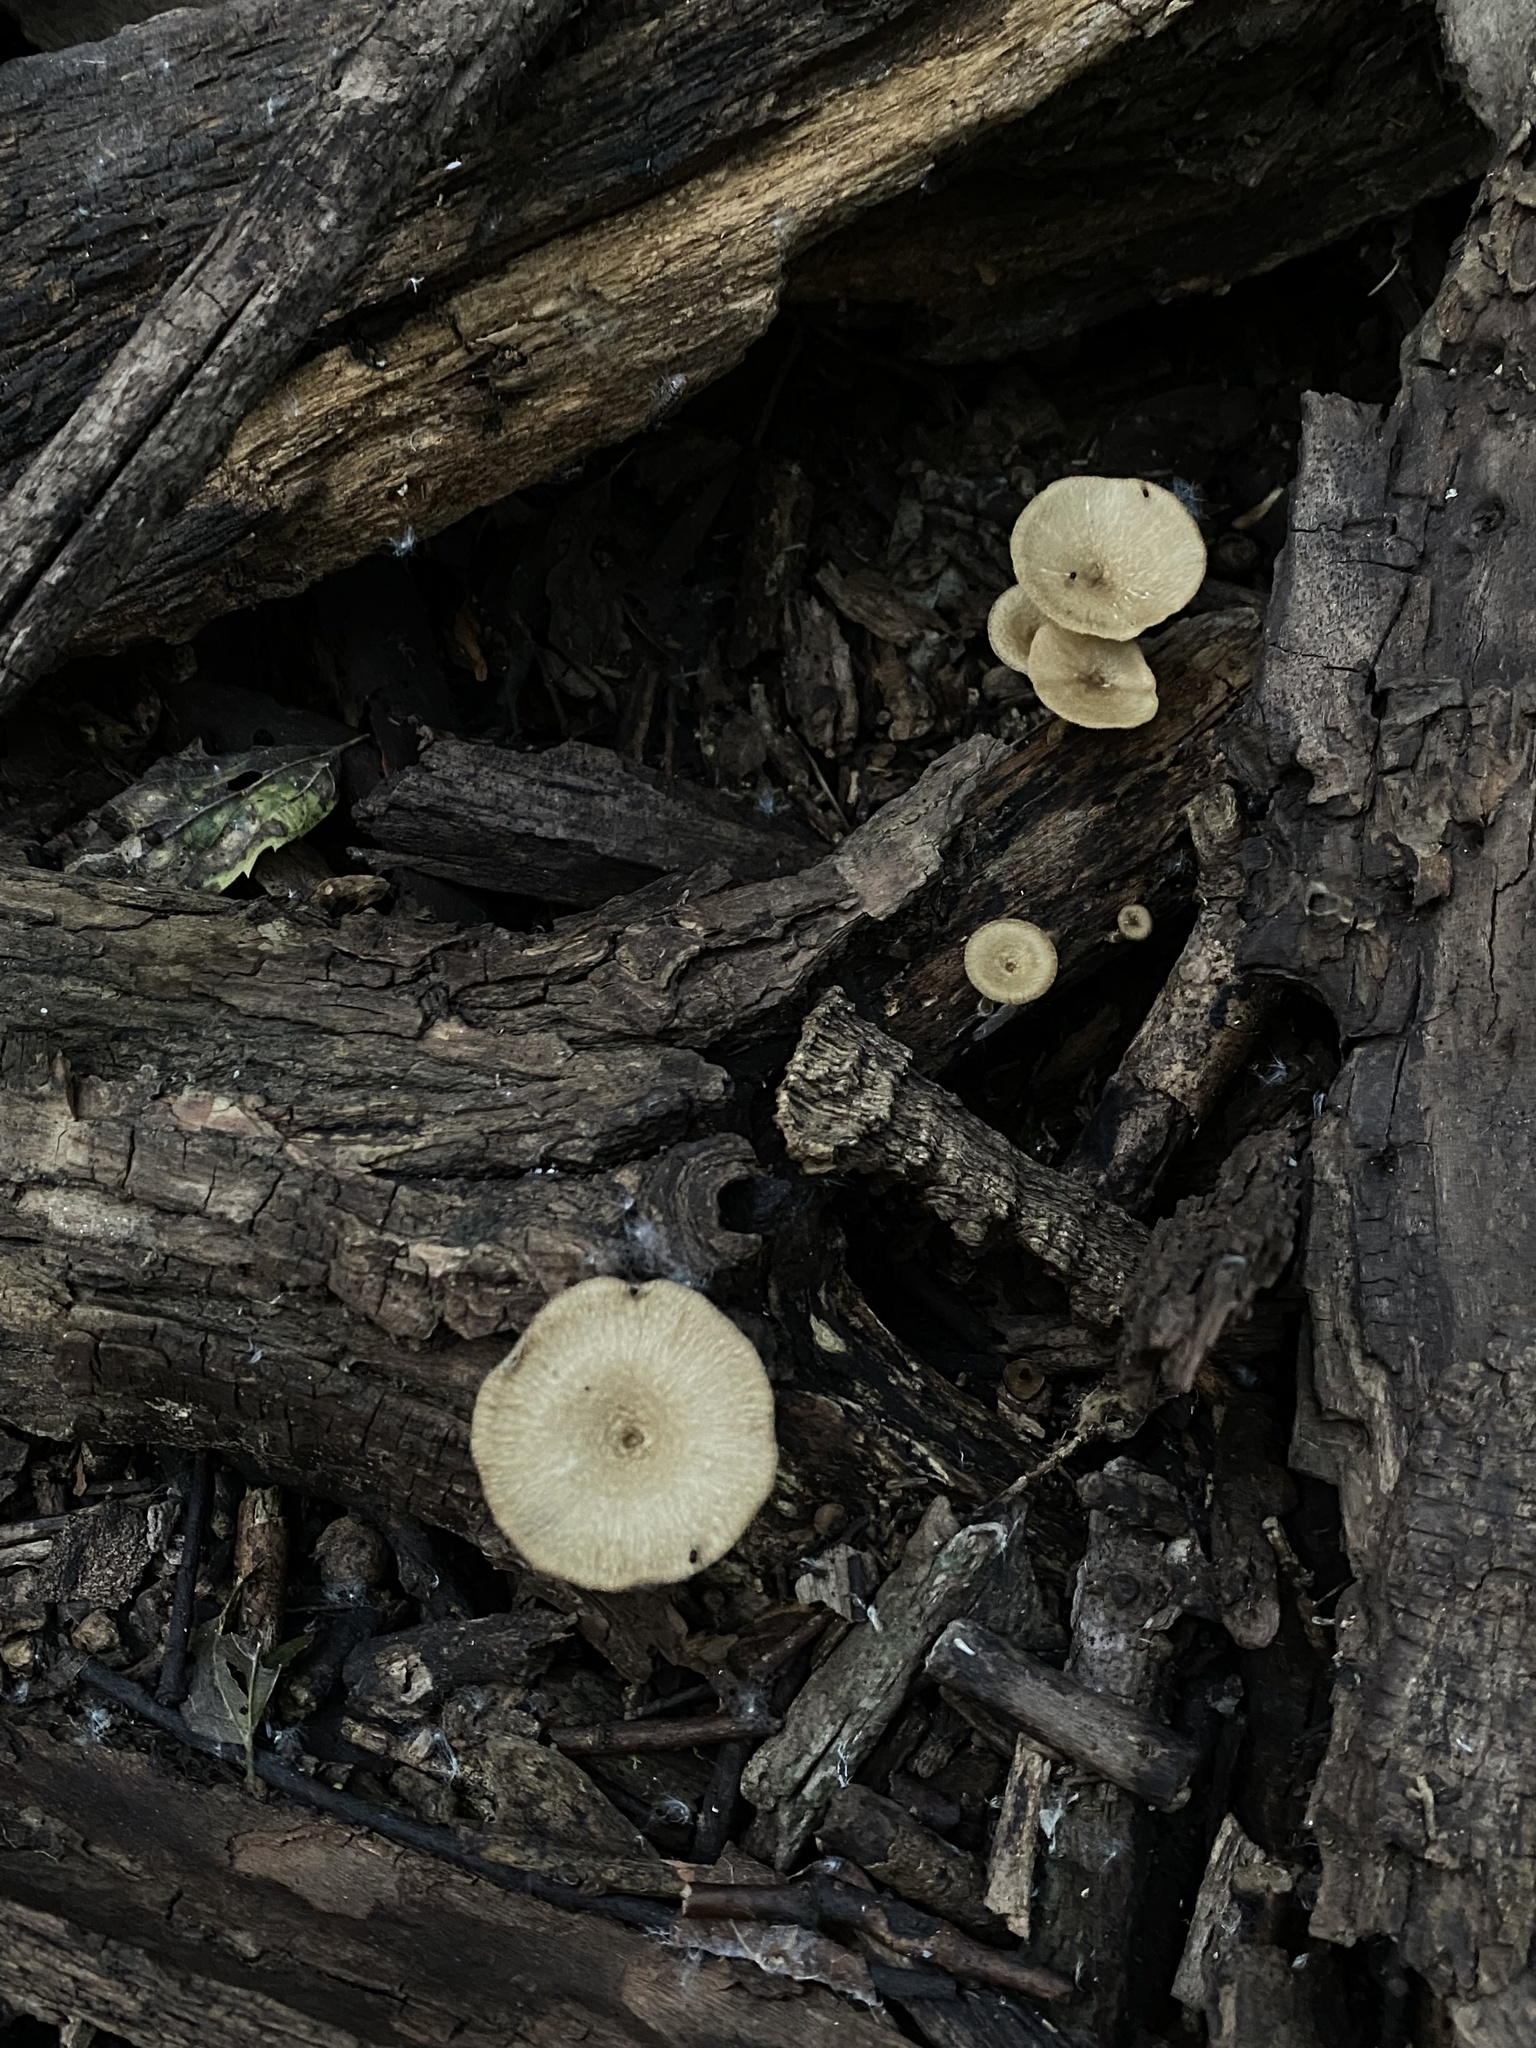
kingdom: Fungi
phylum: Basidiomycota
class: Agaricomycetes
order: Polyporales
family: Polyporaceae
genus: Lentinus
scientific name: Lentinus arcularius
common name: Spring polypore
